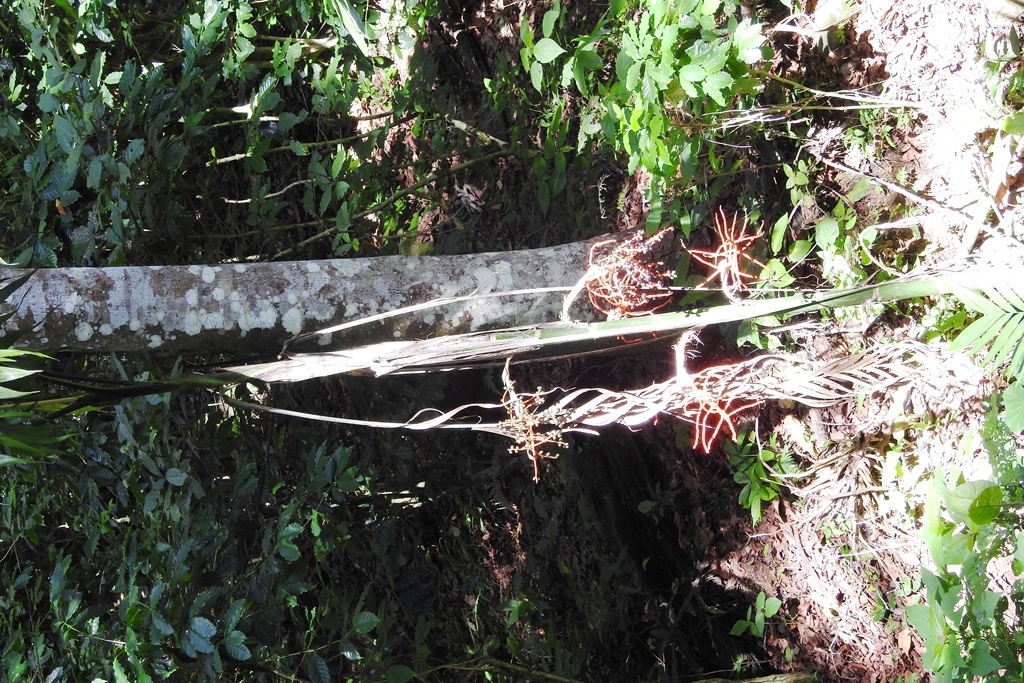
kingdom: Plantae
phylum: Tracheophyta
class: Liliopsida
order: Arecales
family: Arecaceae
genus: Chamaedorea
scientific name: Chamaedorea costaricana
